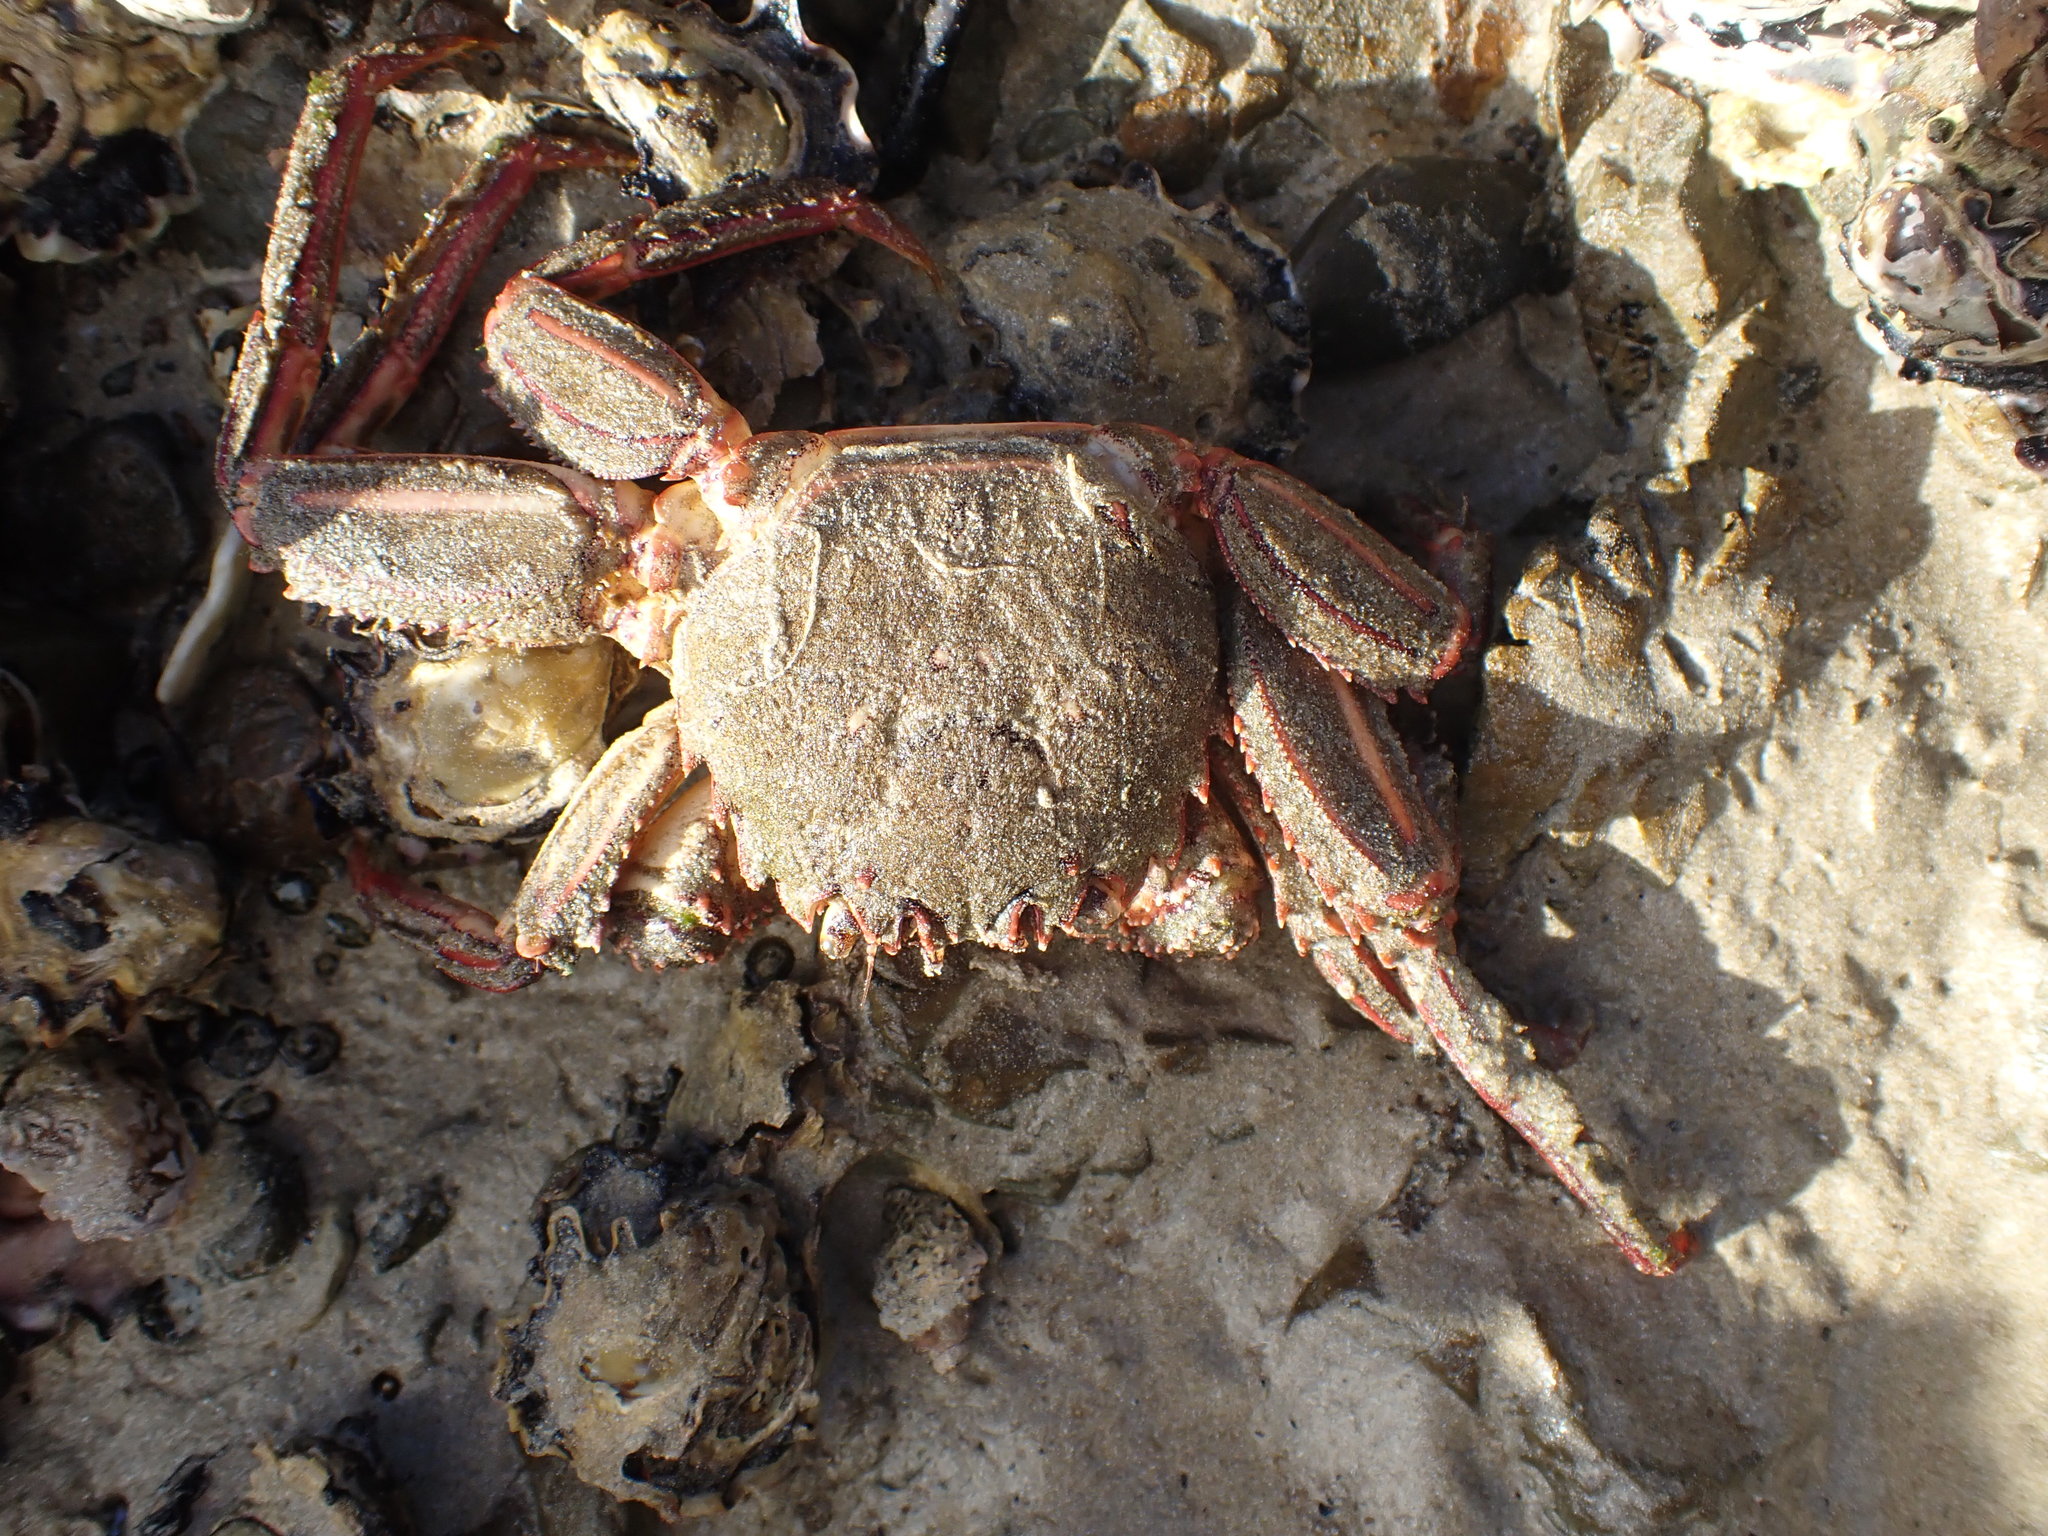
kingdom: Animalia
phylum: Arthropoda
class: Malacostraca
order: Decapoda
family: Plagusiidae
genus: Guinusia
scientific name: Guinusia chabrus
